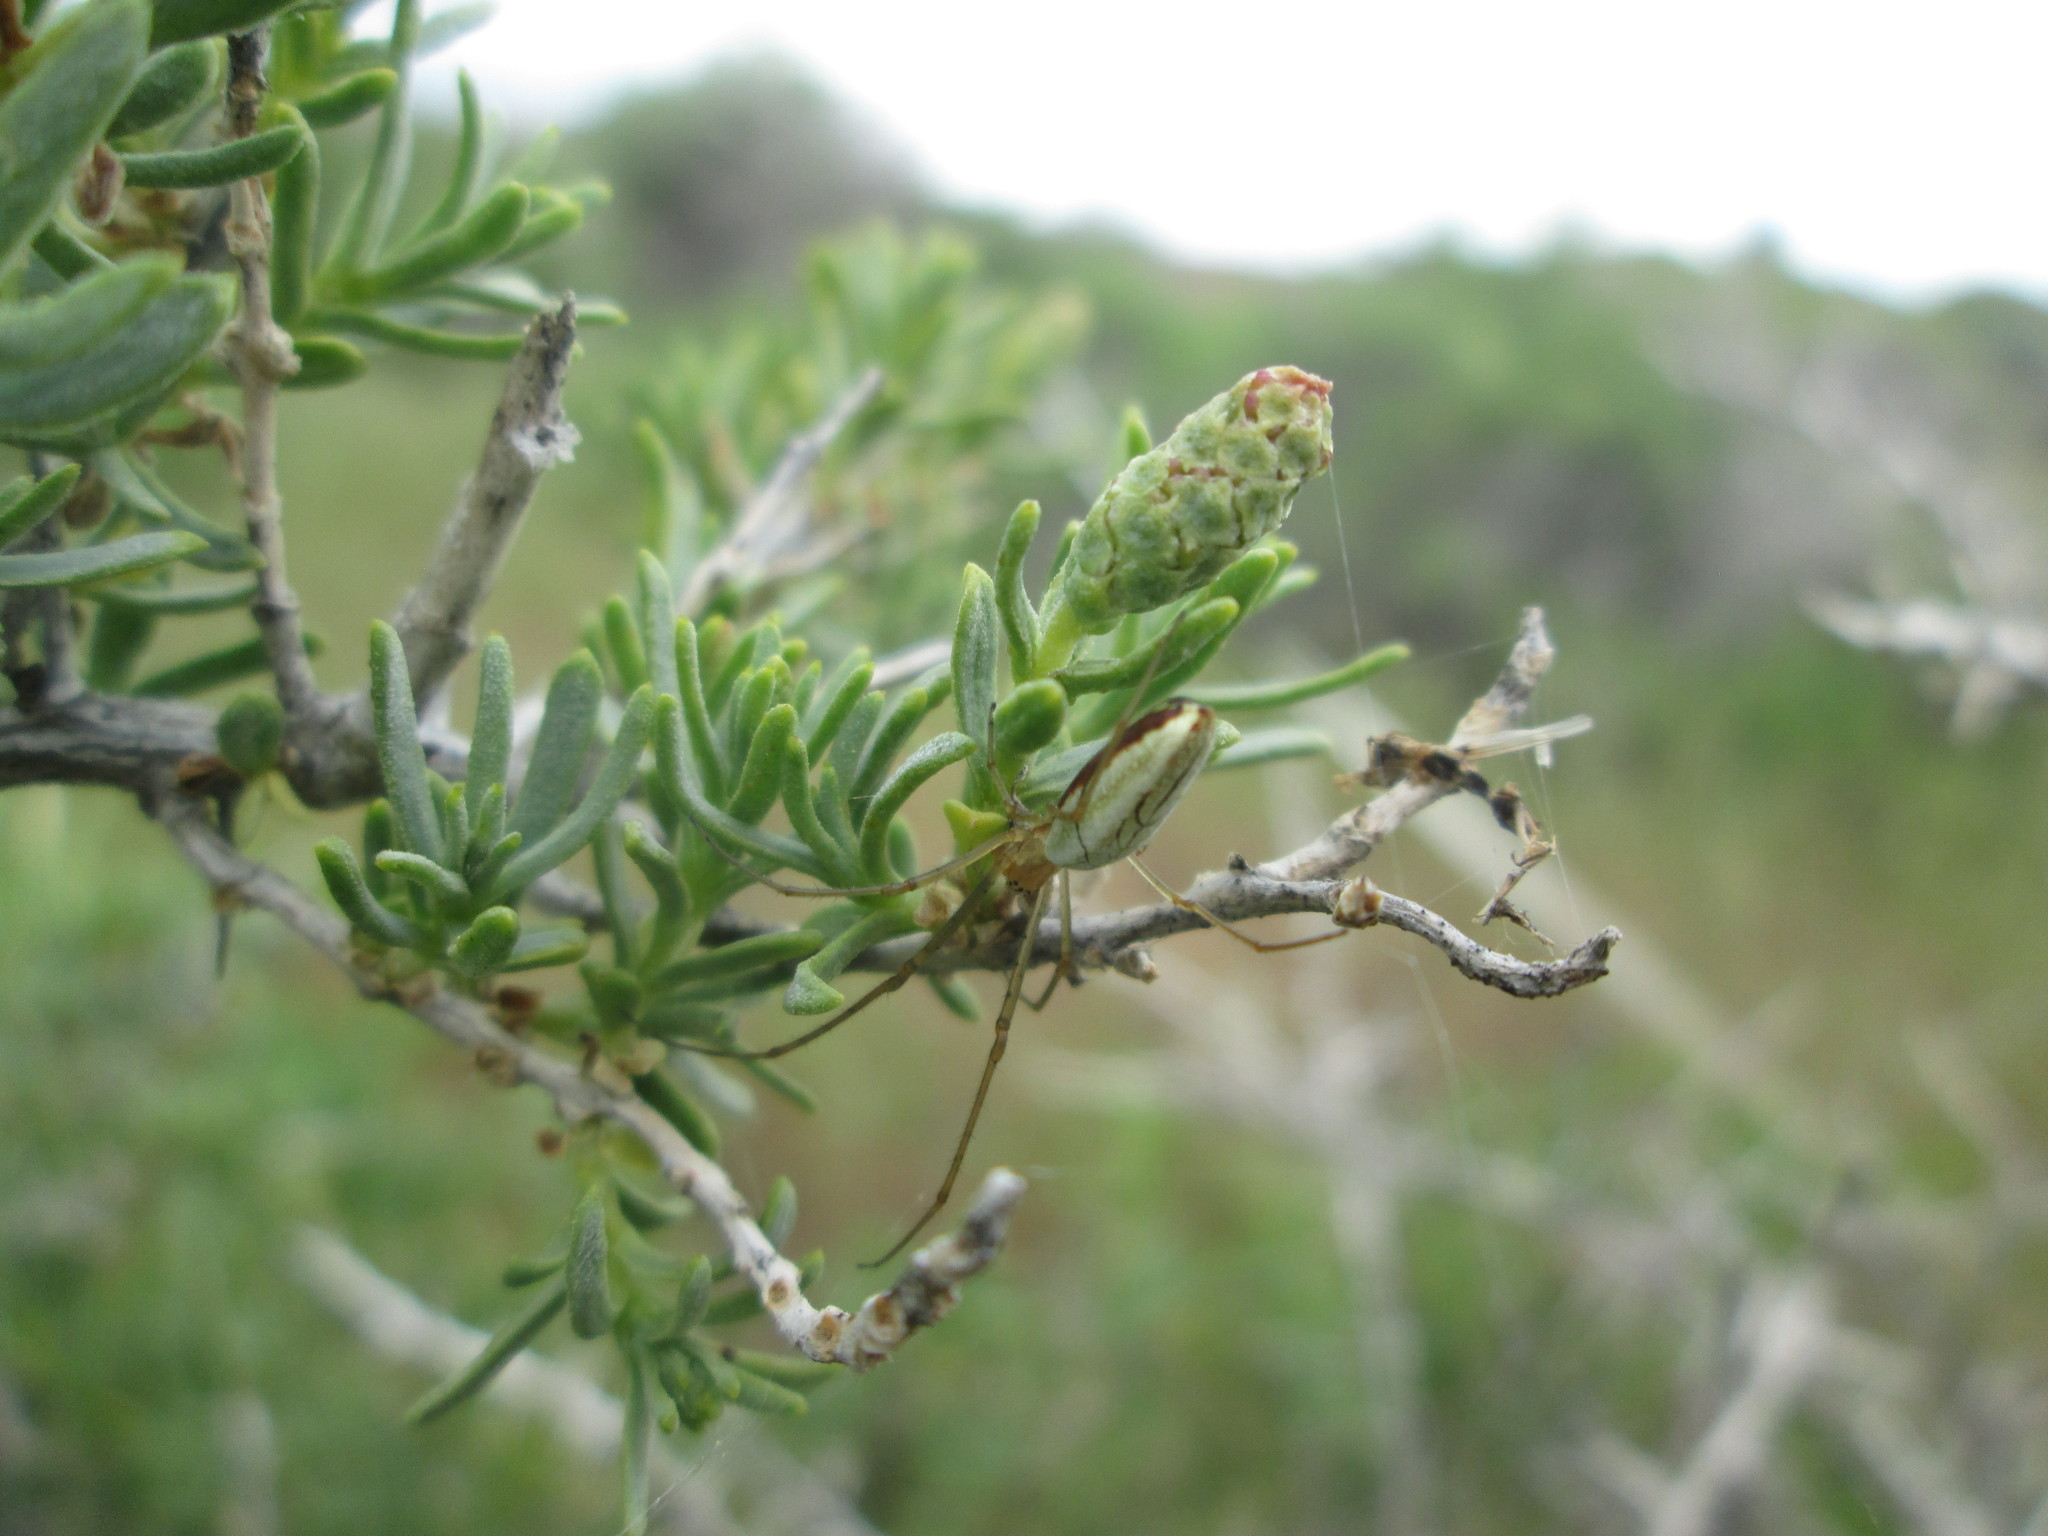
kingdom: Plantae
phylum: Tracheophyta
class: Magnoliopsida
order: Caryophyllales
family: Sarcobataceae
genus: Sarcobatus
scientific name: Sarcobatus vermiculatus
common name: Greasewood
